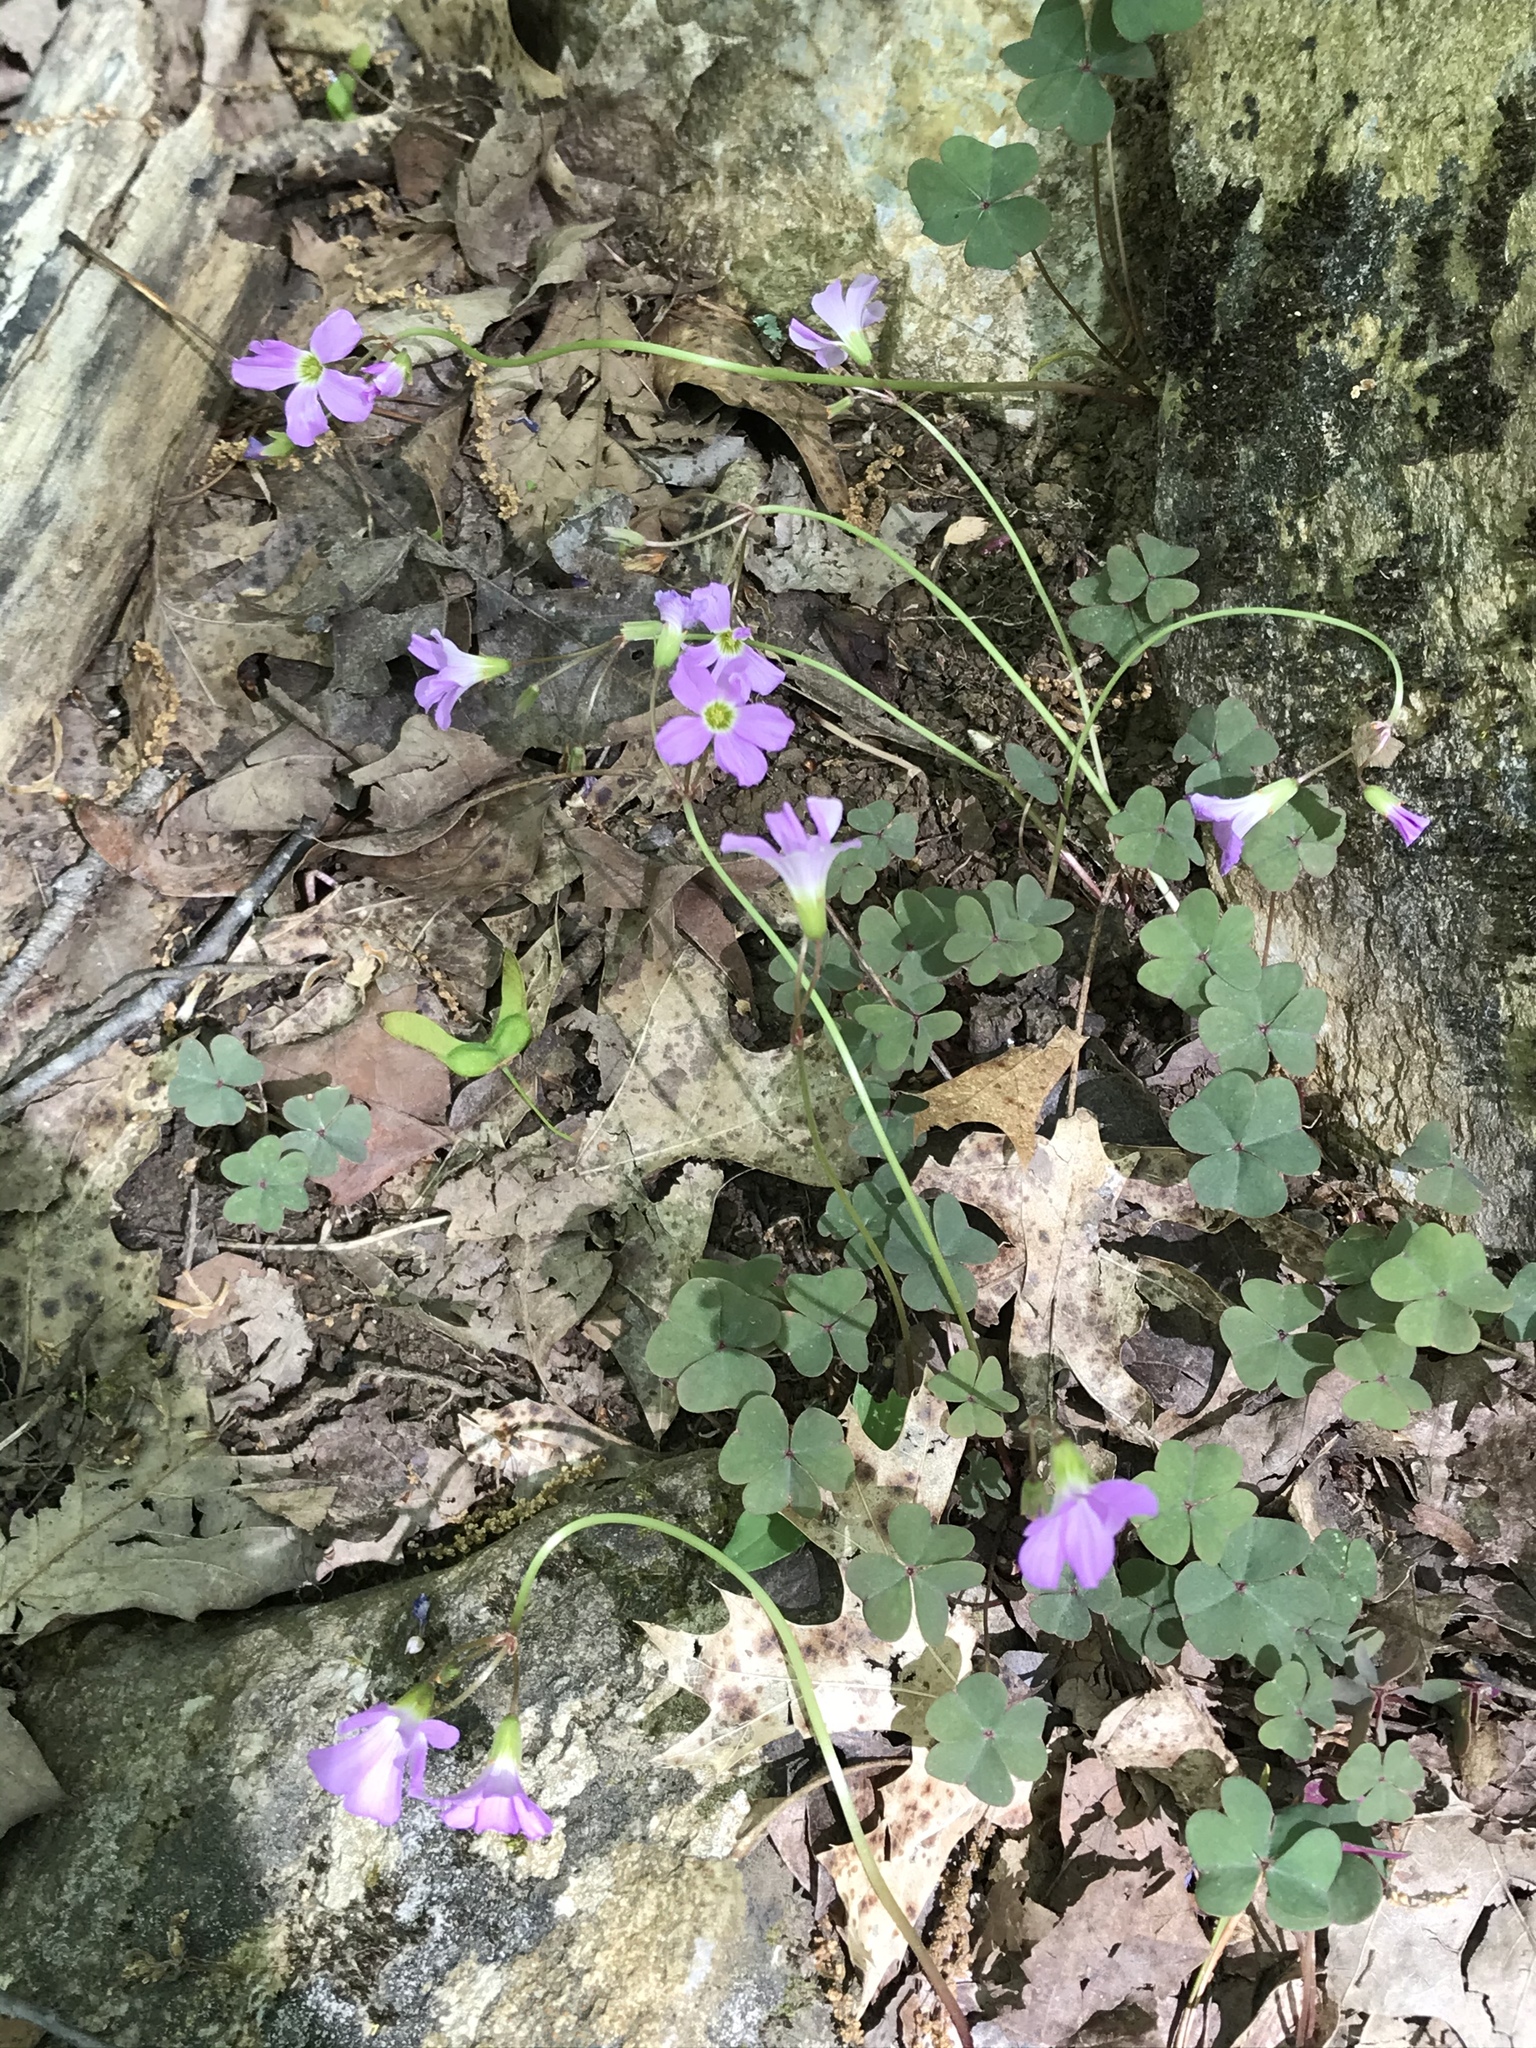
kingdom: Plantae
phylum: Tracheophyta
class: Magnoliopsida
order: Oxalidales
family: Oxalidaceae
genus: Oxalis
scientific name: Oxalis violacea
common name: Violet wood-sorrel
